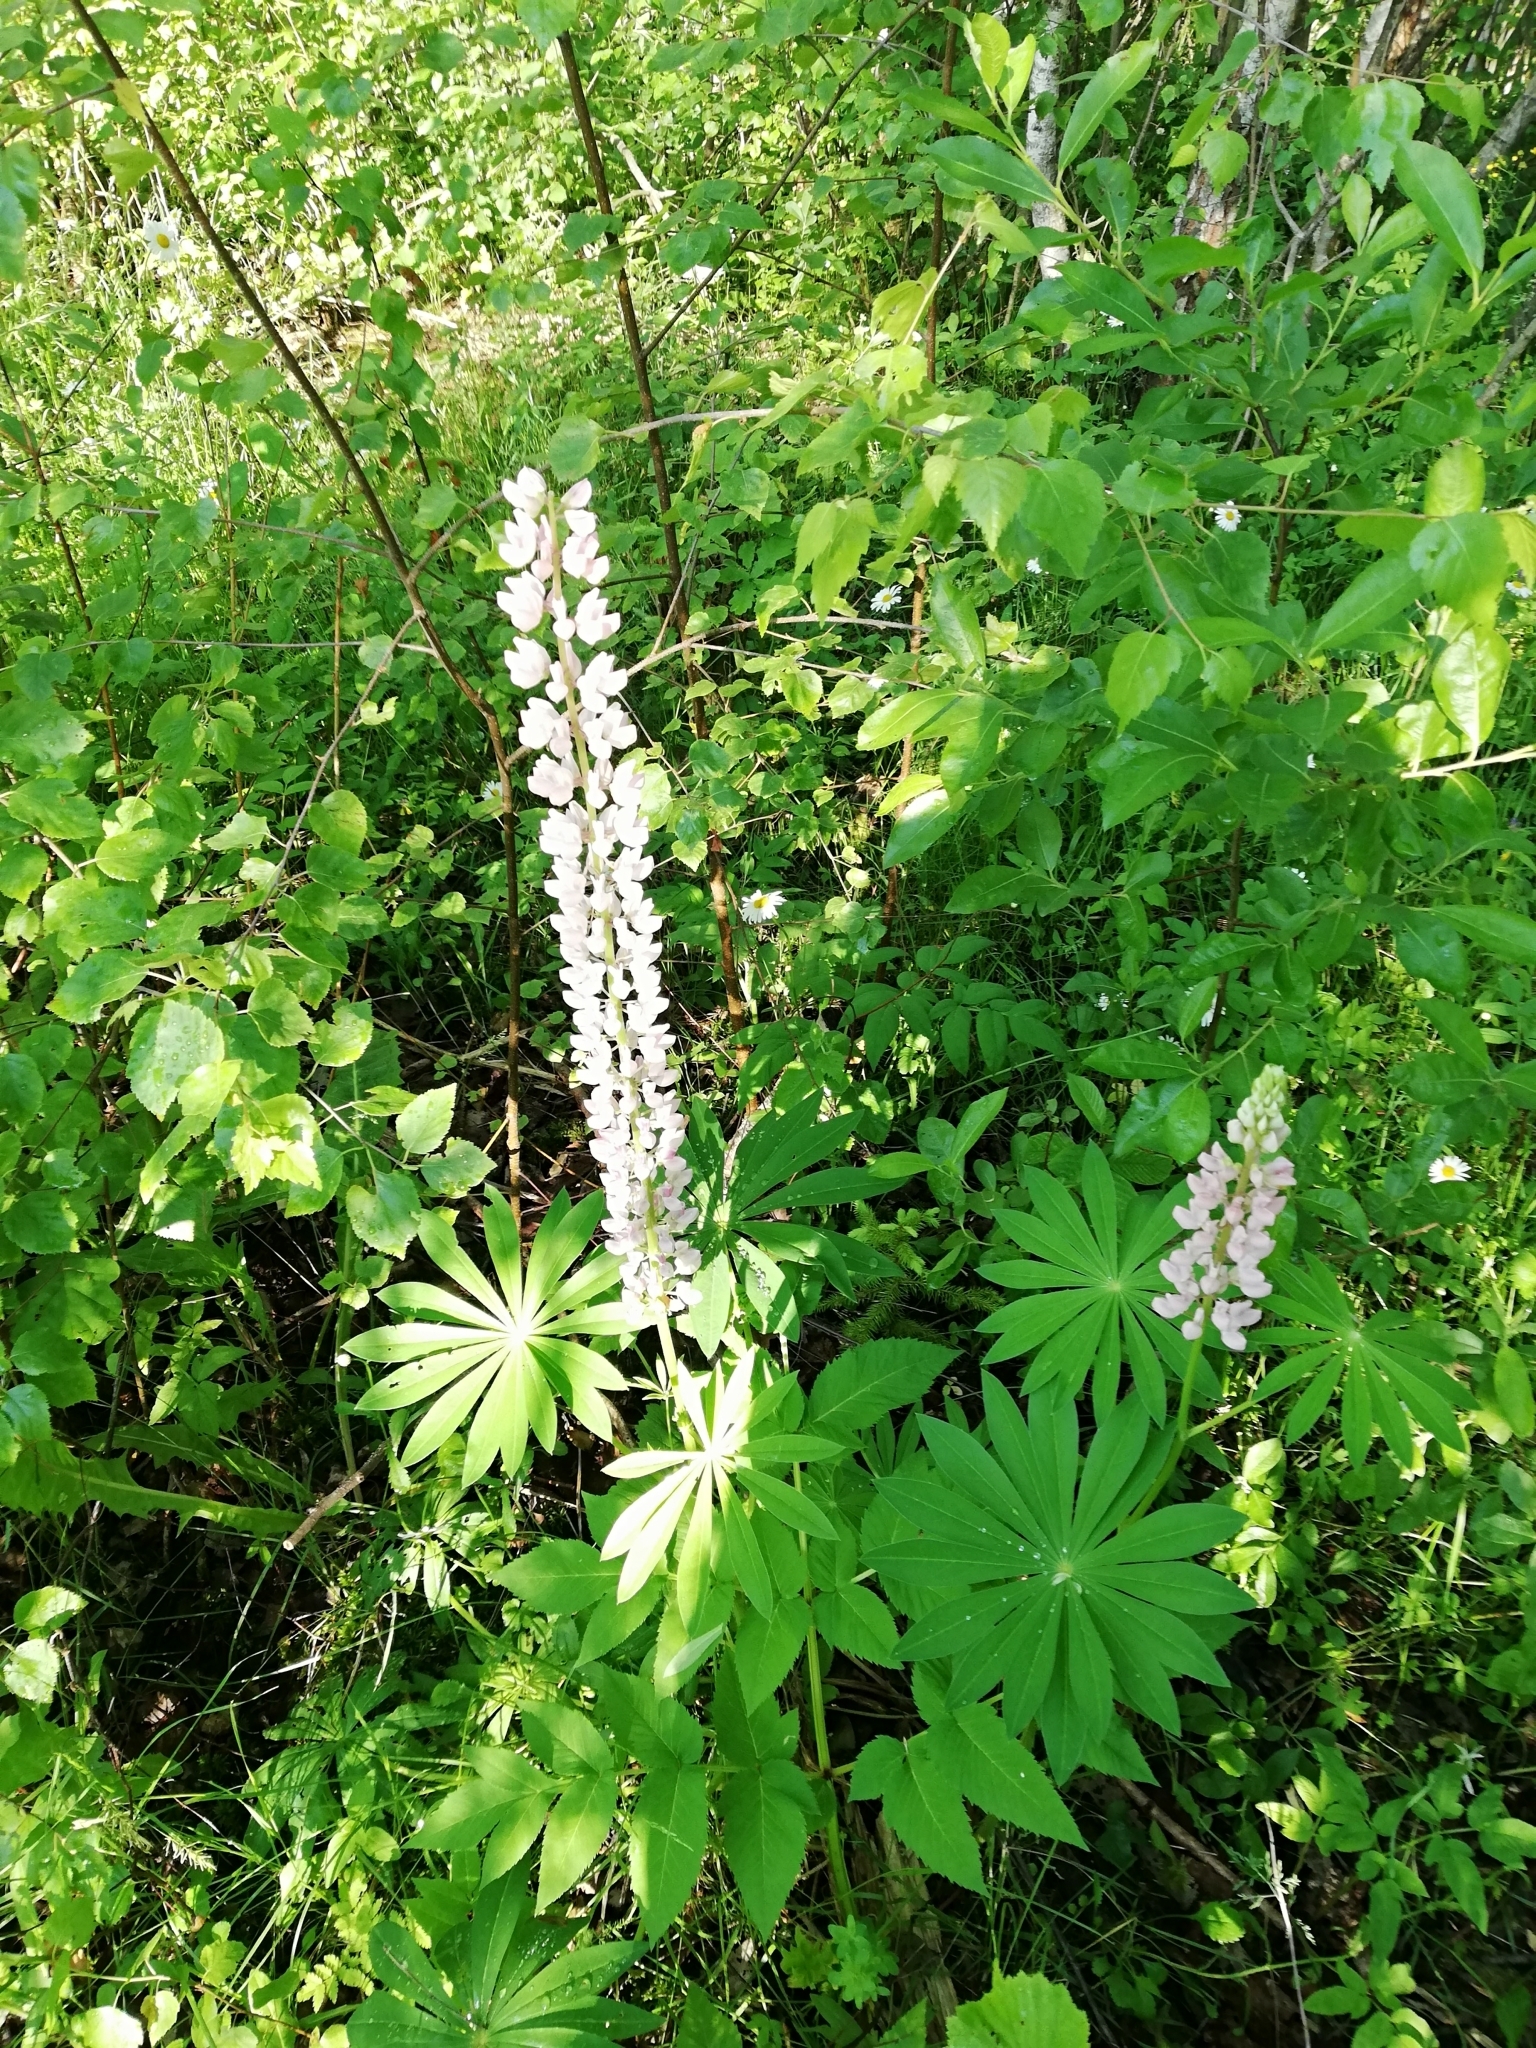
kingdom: Plantae
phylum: Tracheophyta
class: Magnoliopsida
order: Fabales
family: Fabaceae
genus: Lupinus
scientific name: Lupinus polyphyllus
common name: Garden lupin
